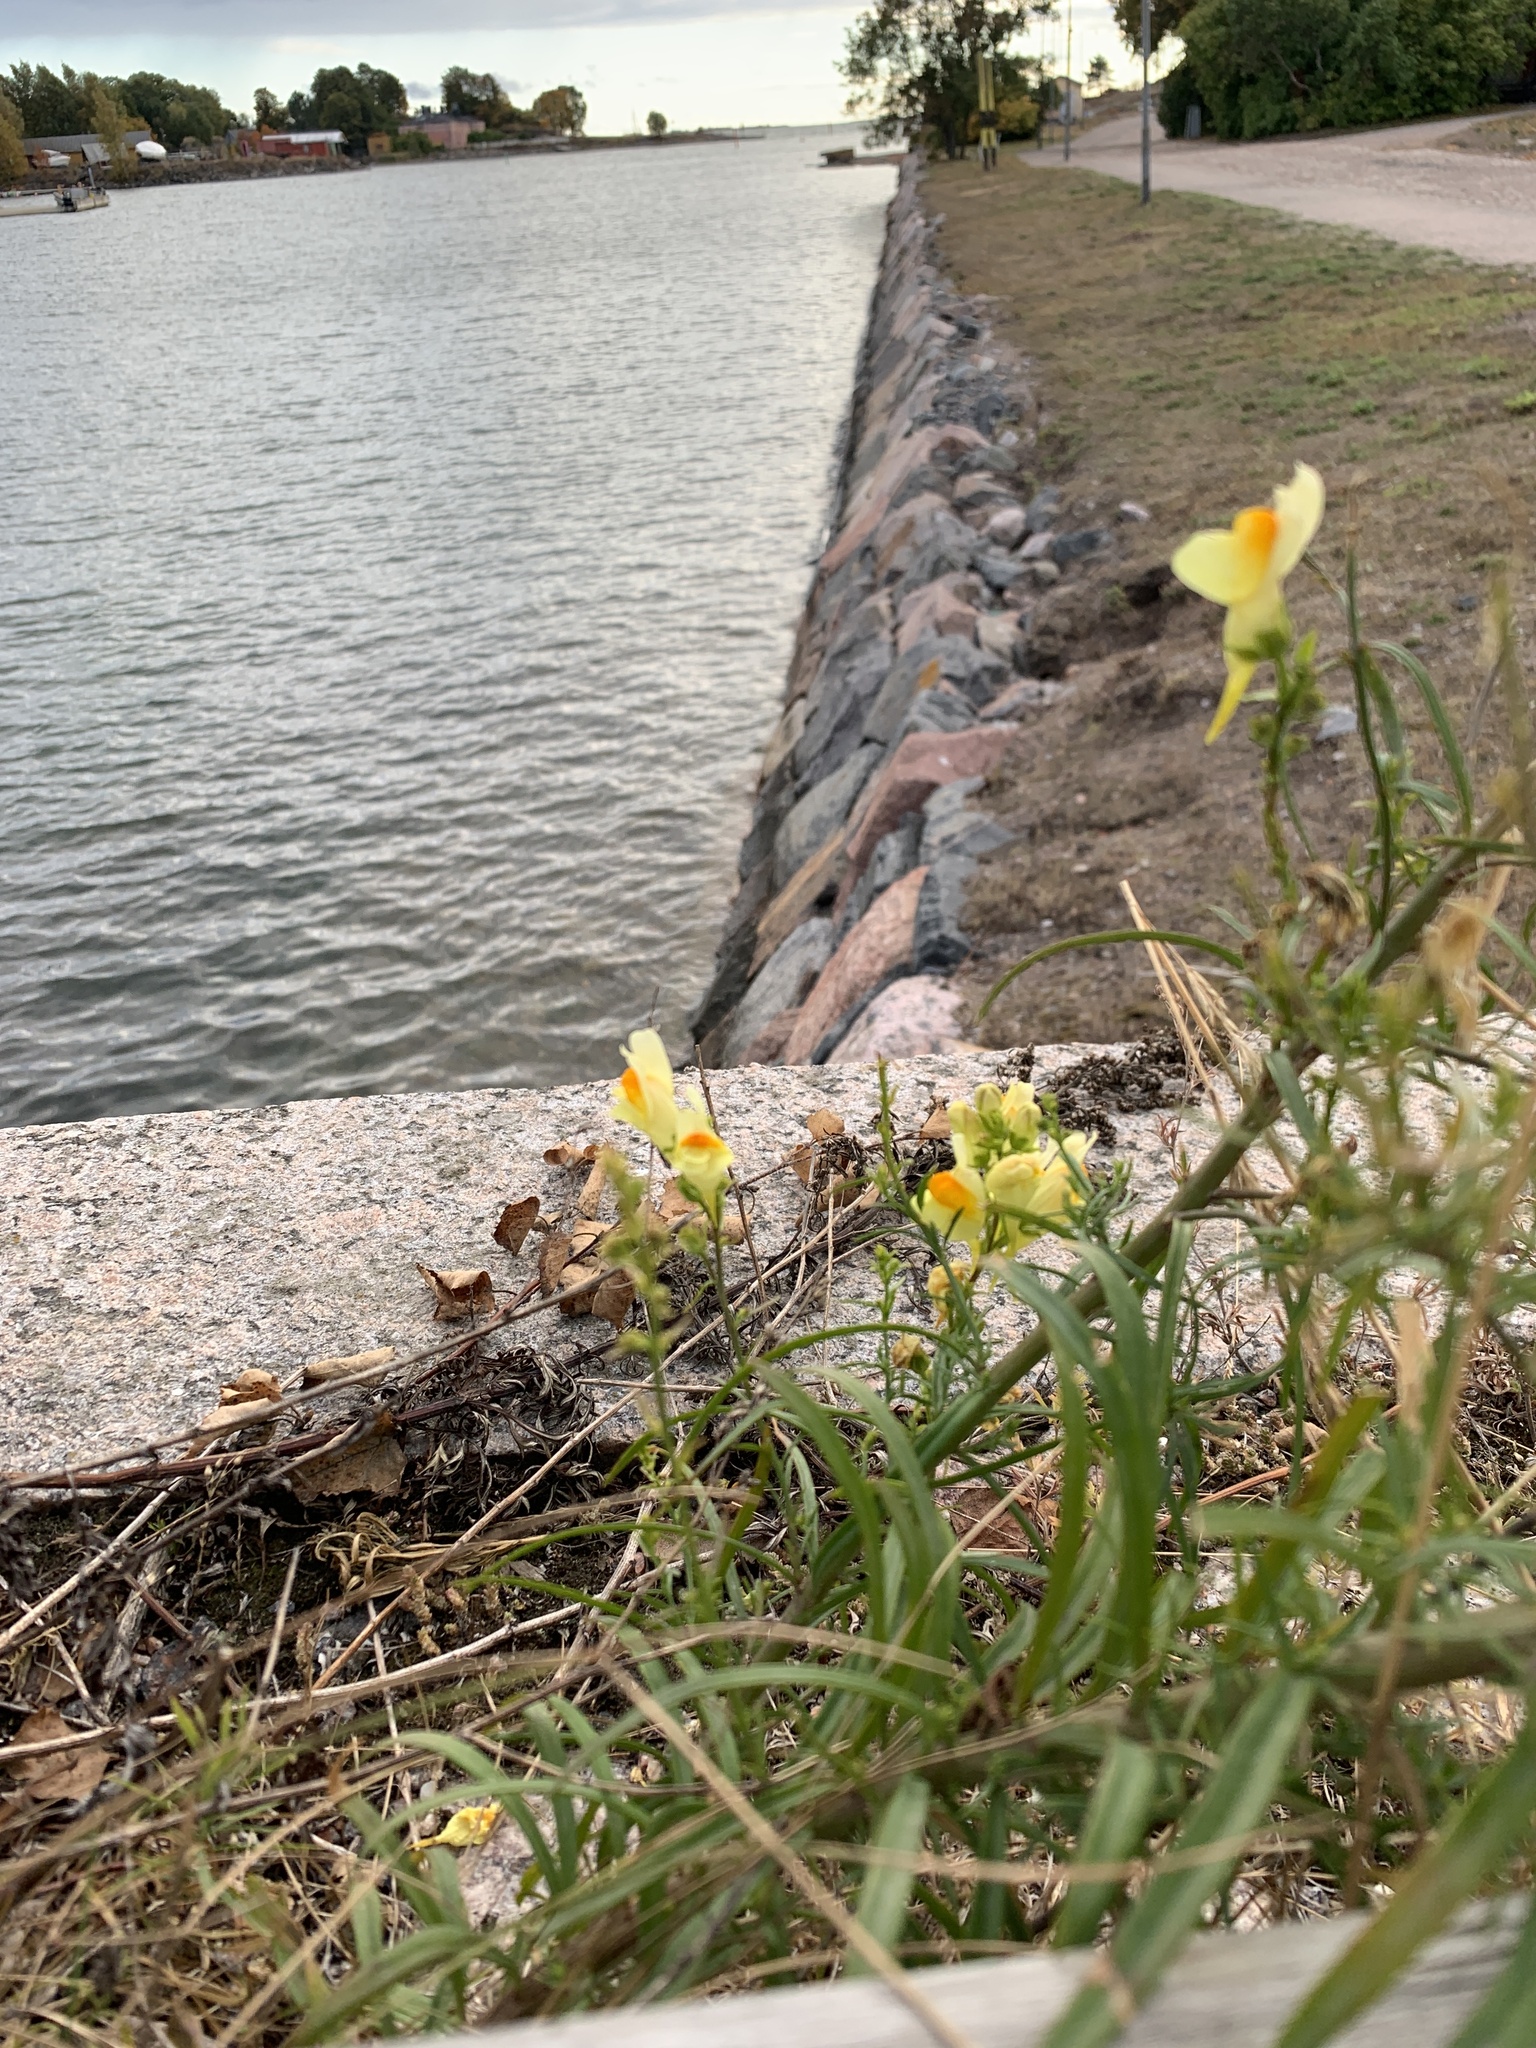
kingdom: Plantae
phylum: Tracheophyta
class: Magnoliopsida
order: Lamiales
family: Plantaginaceae
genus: Linaria
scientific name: Linaria vulgaris
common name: Butter and eggs
